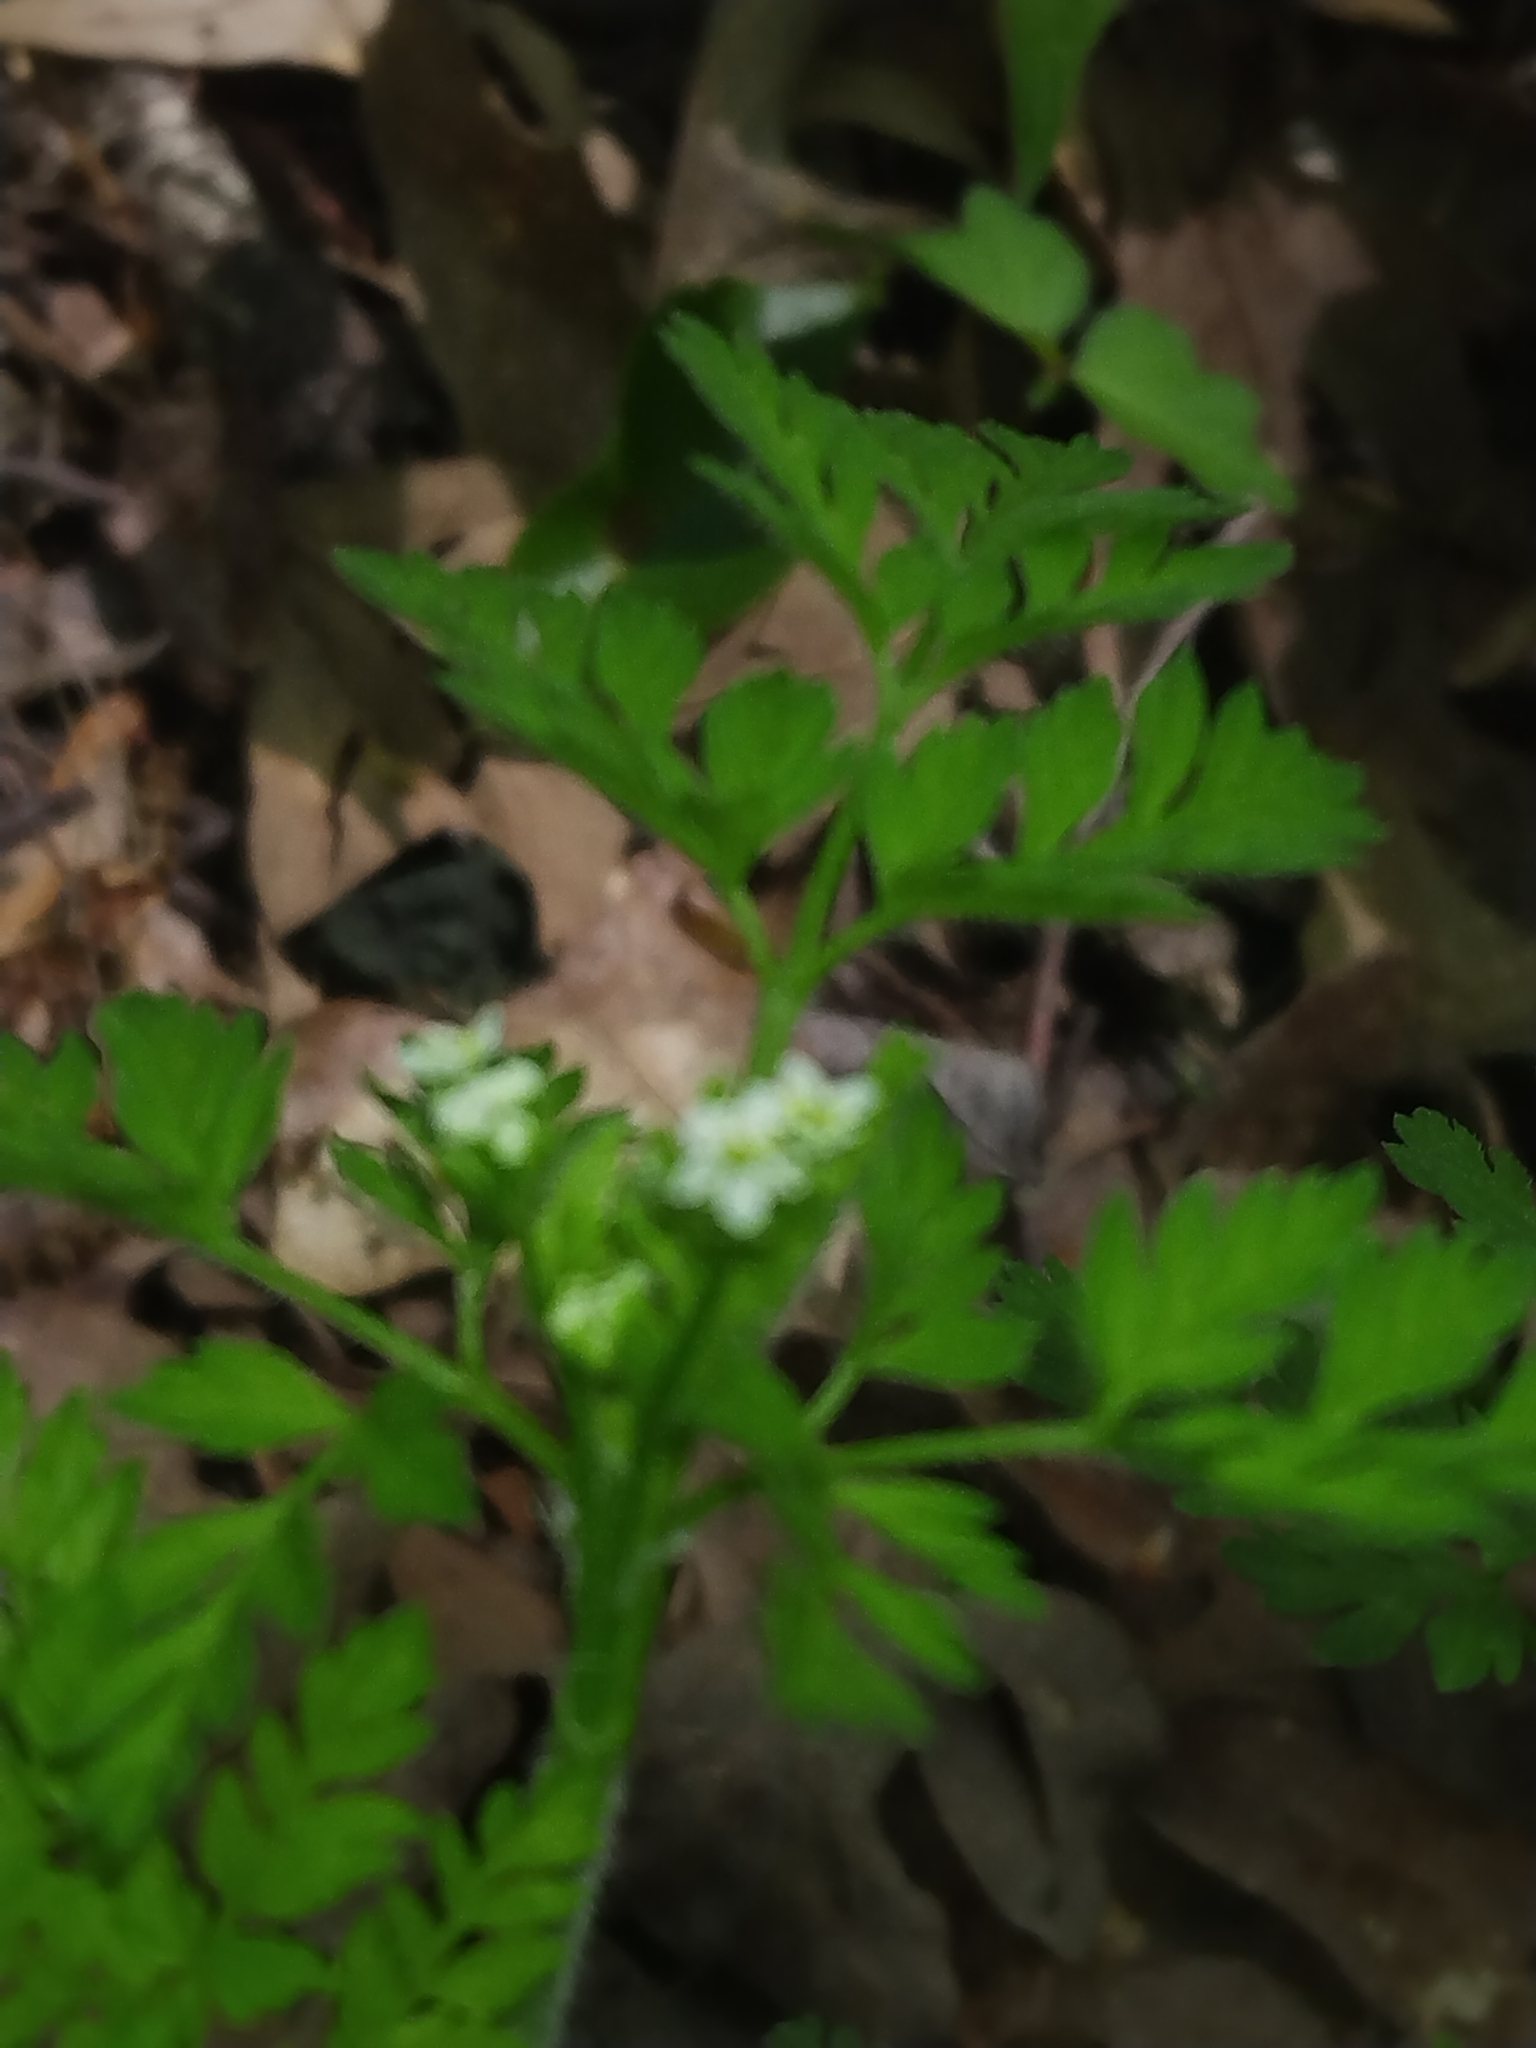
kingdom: Plantae
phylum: Tracheophyta
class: Magnoliopsida
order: Apiales
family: Apiaceae
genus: Chaerophyllum
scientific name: Chaerophyllum tainturieri
